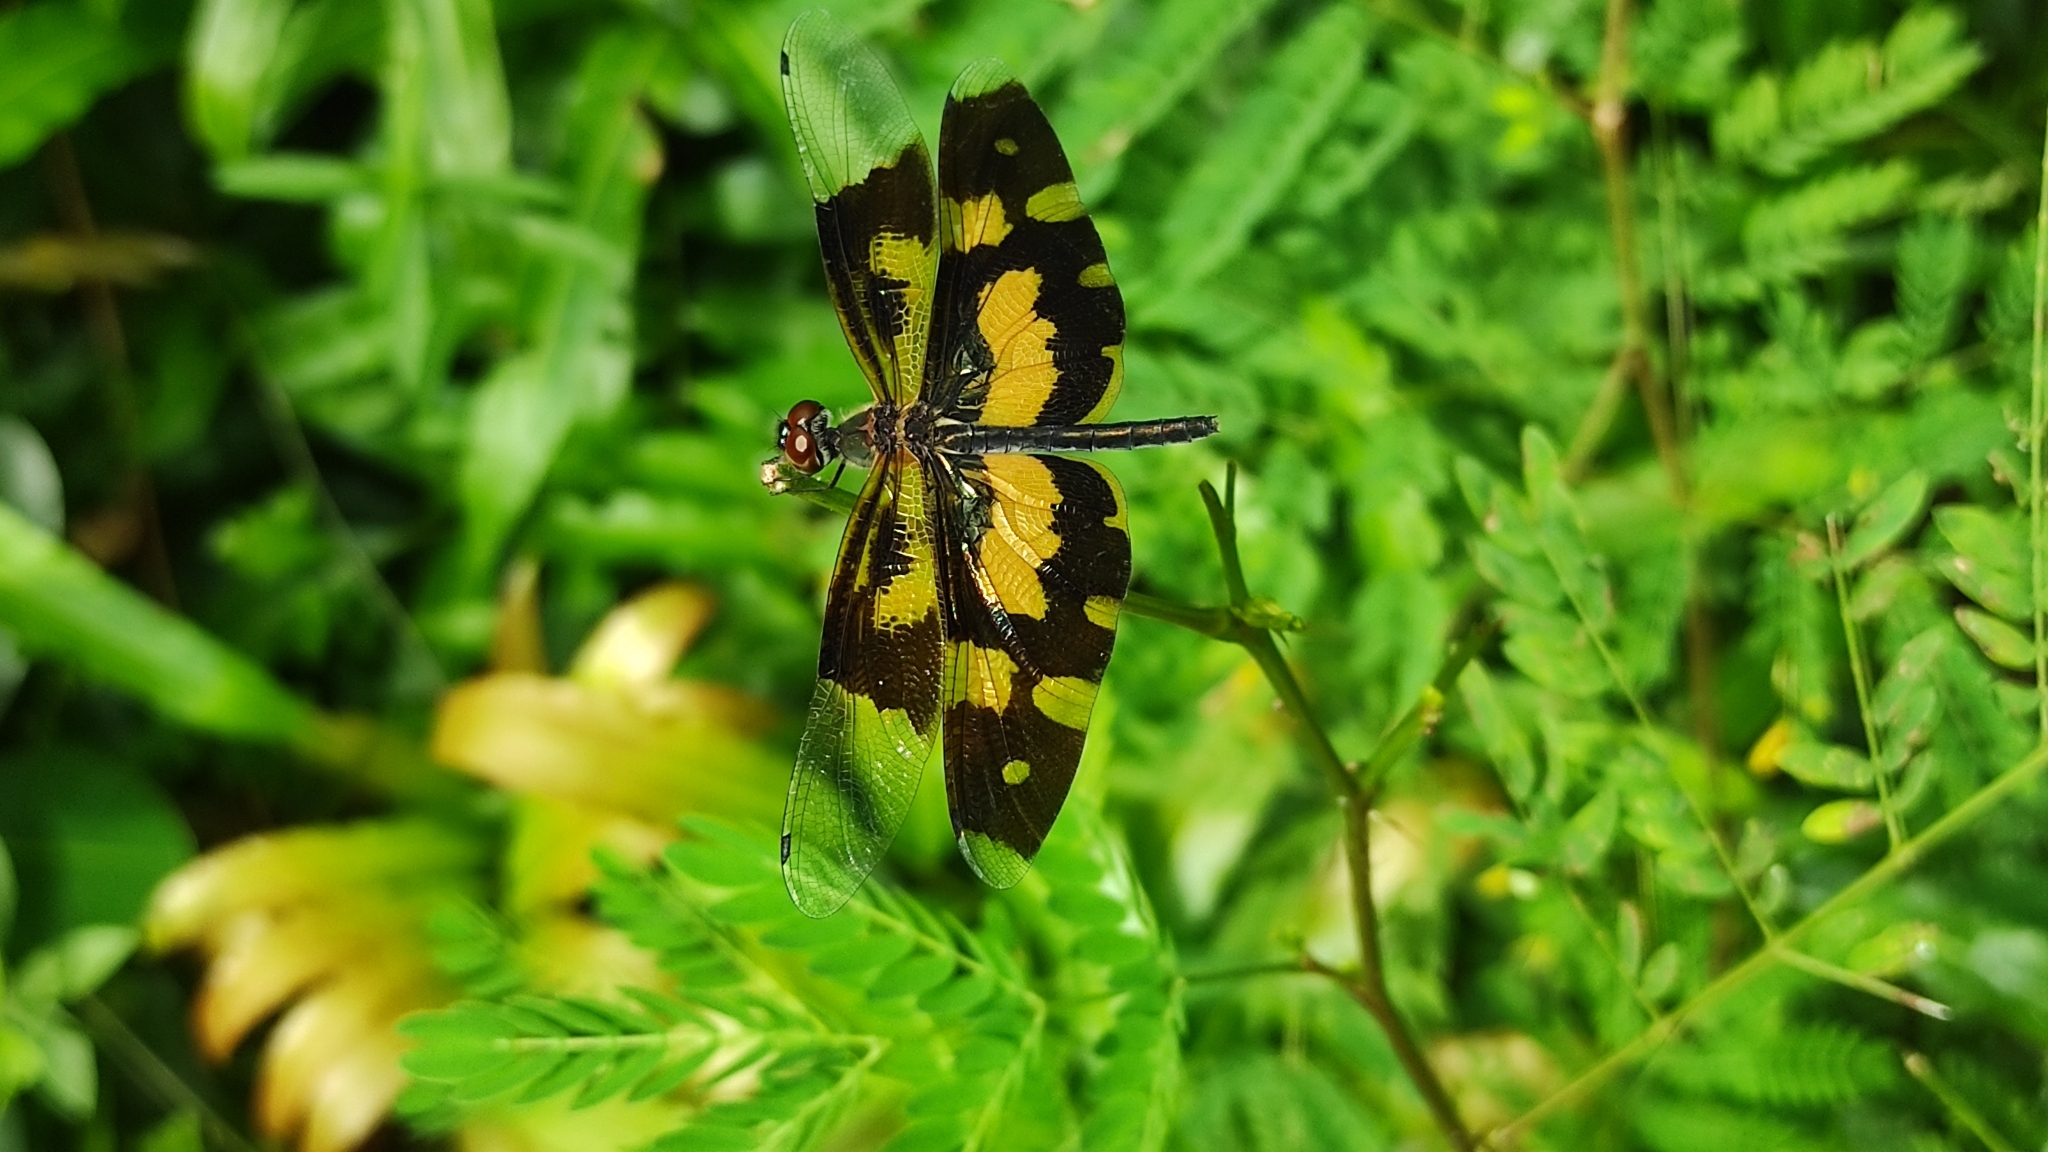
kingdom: Animalia
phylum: Arthropoda
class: Insecta
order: Odonata
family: Libellulidae
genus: Rhyothemis
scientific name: Rhyothemis variegata
